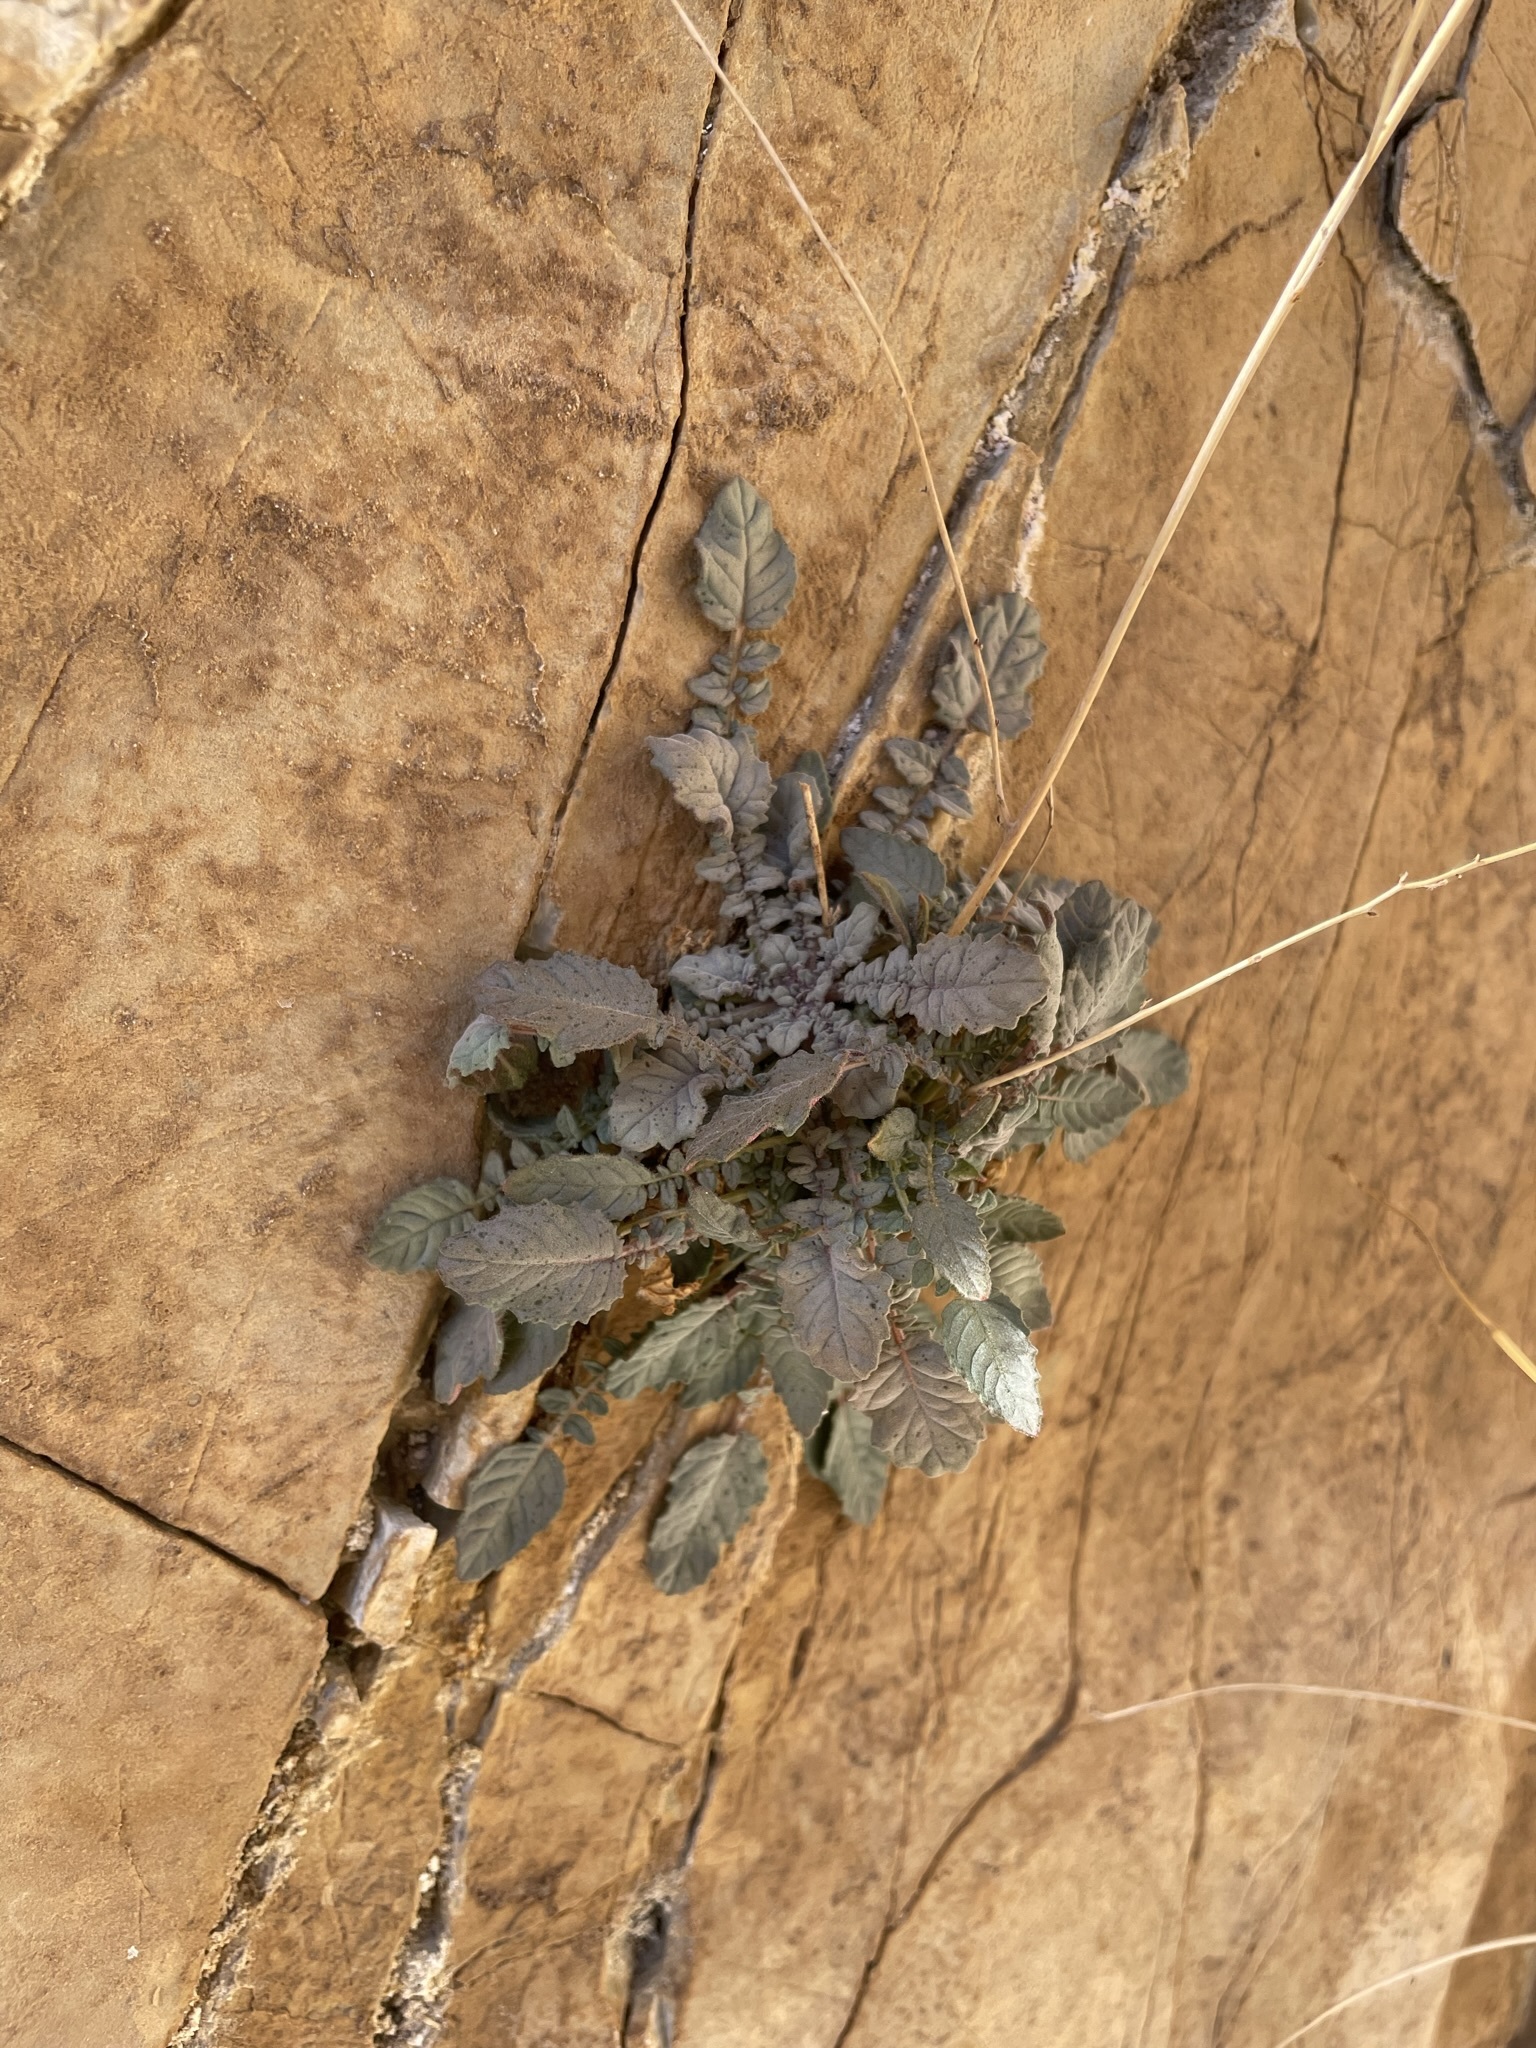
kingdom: Plantae
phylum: Tracheophyta
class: Magnoliopsida
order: Myrtales
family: Onagraceae
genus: Chylismia
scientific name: Chylismia walkeri
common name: Walker's suncup
